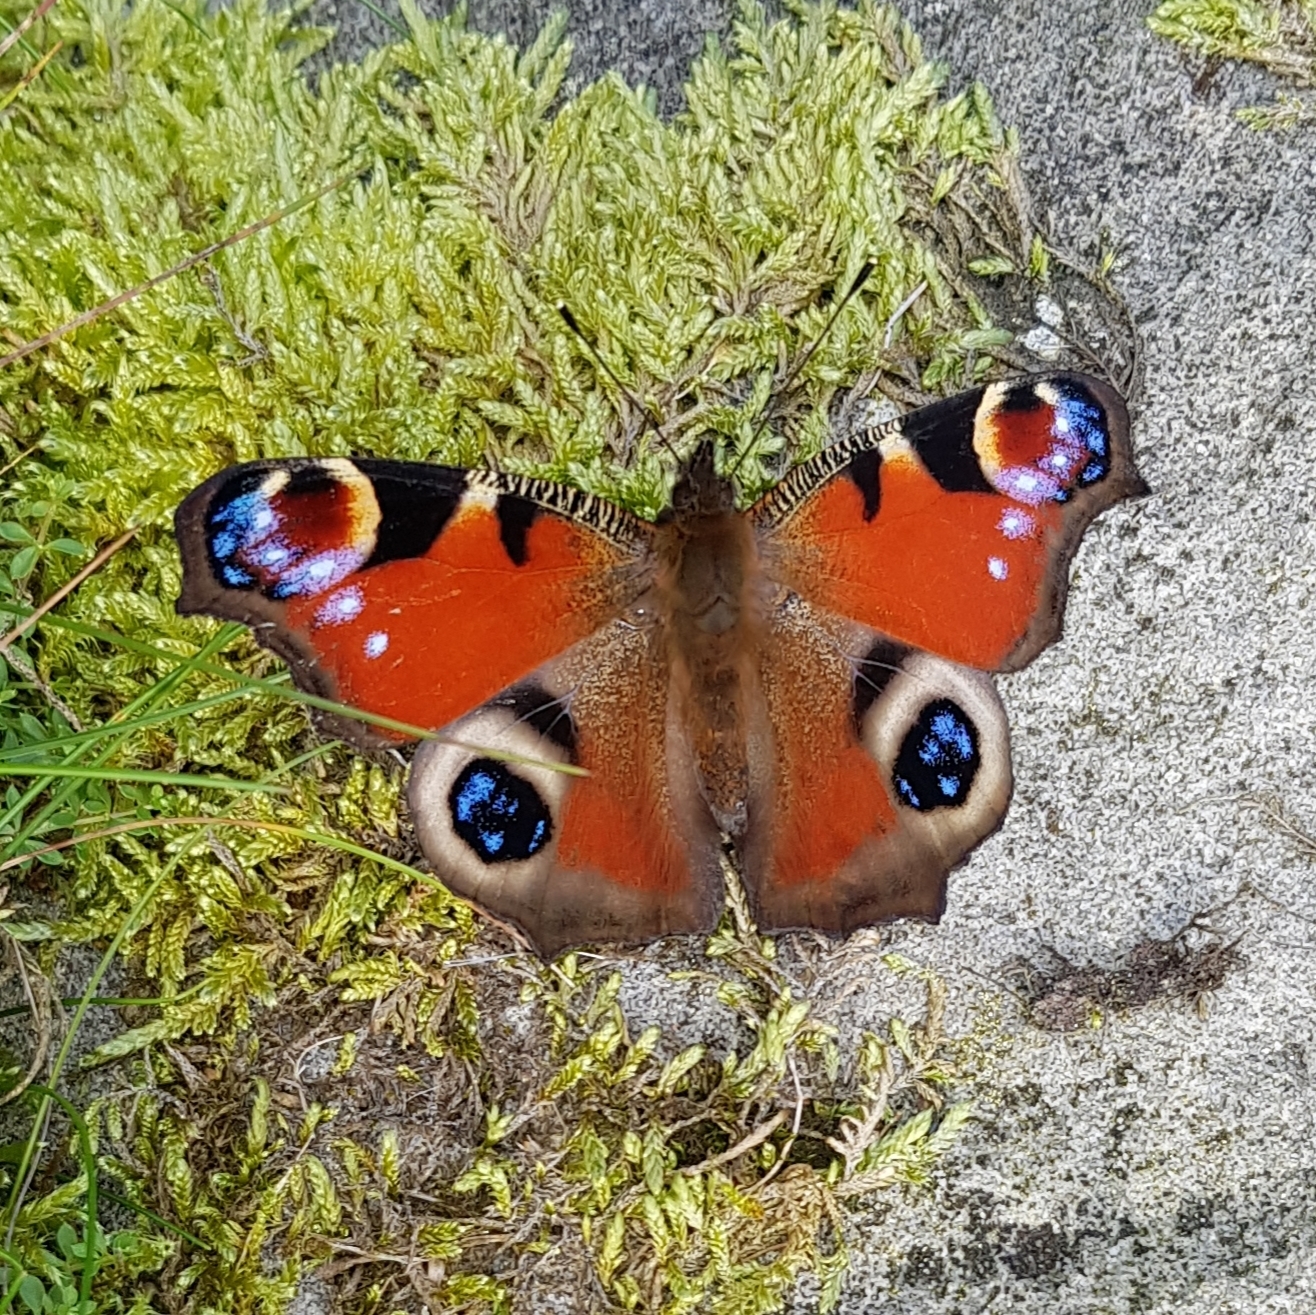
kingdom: Animalia
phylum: Arthropoda
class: Insecta
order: Lepidoptera
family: Nymphalidae
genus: Aglais
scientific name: Aglais io
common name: Peacock
